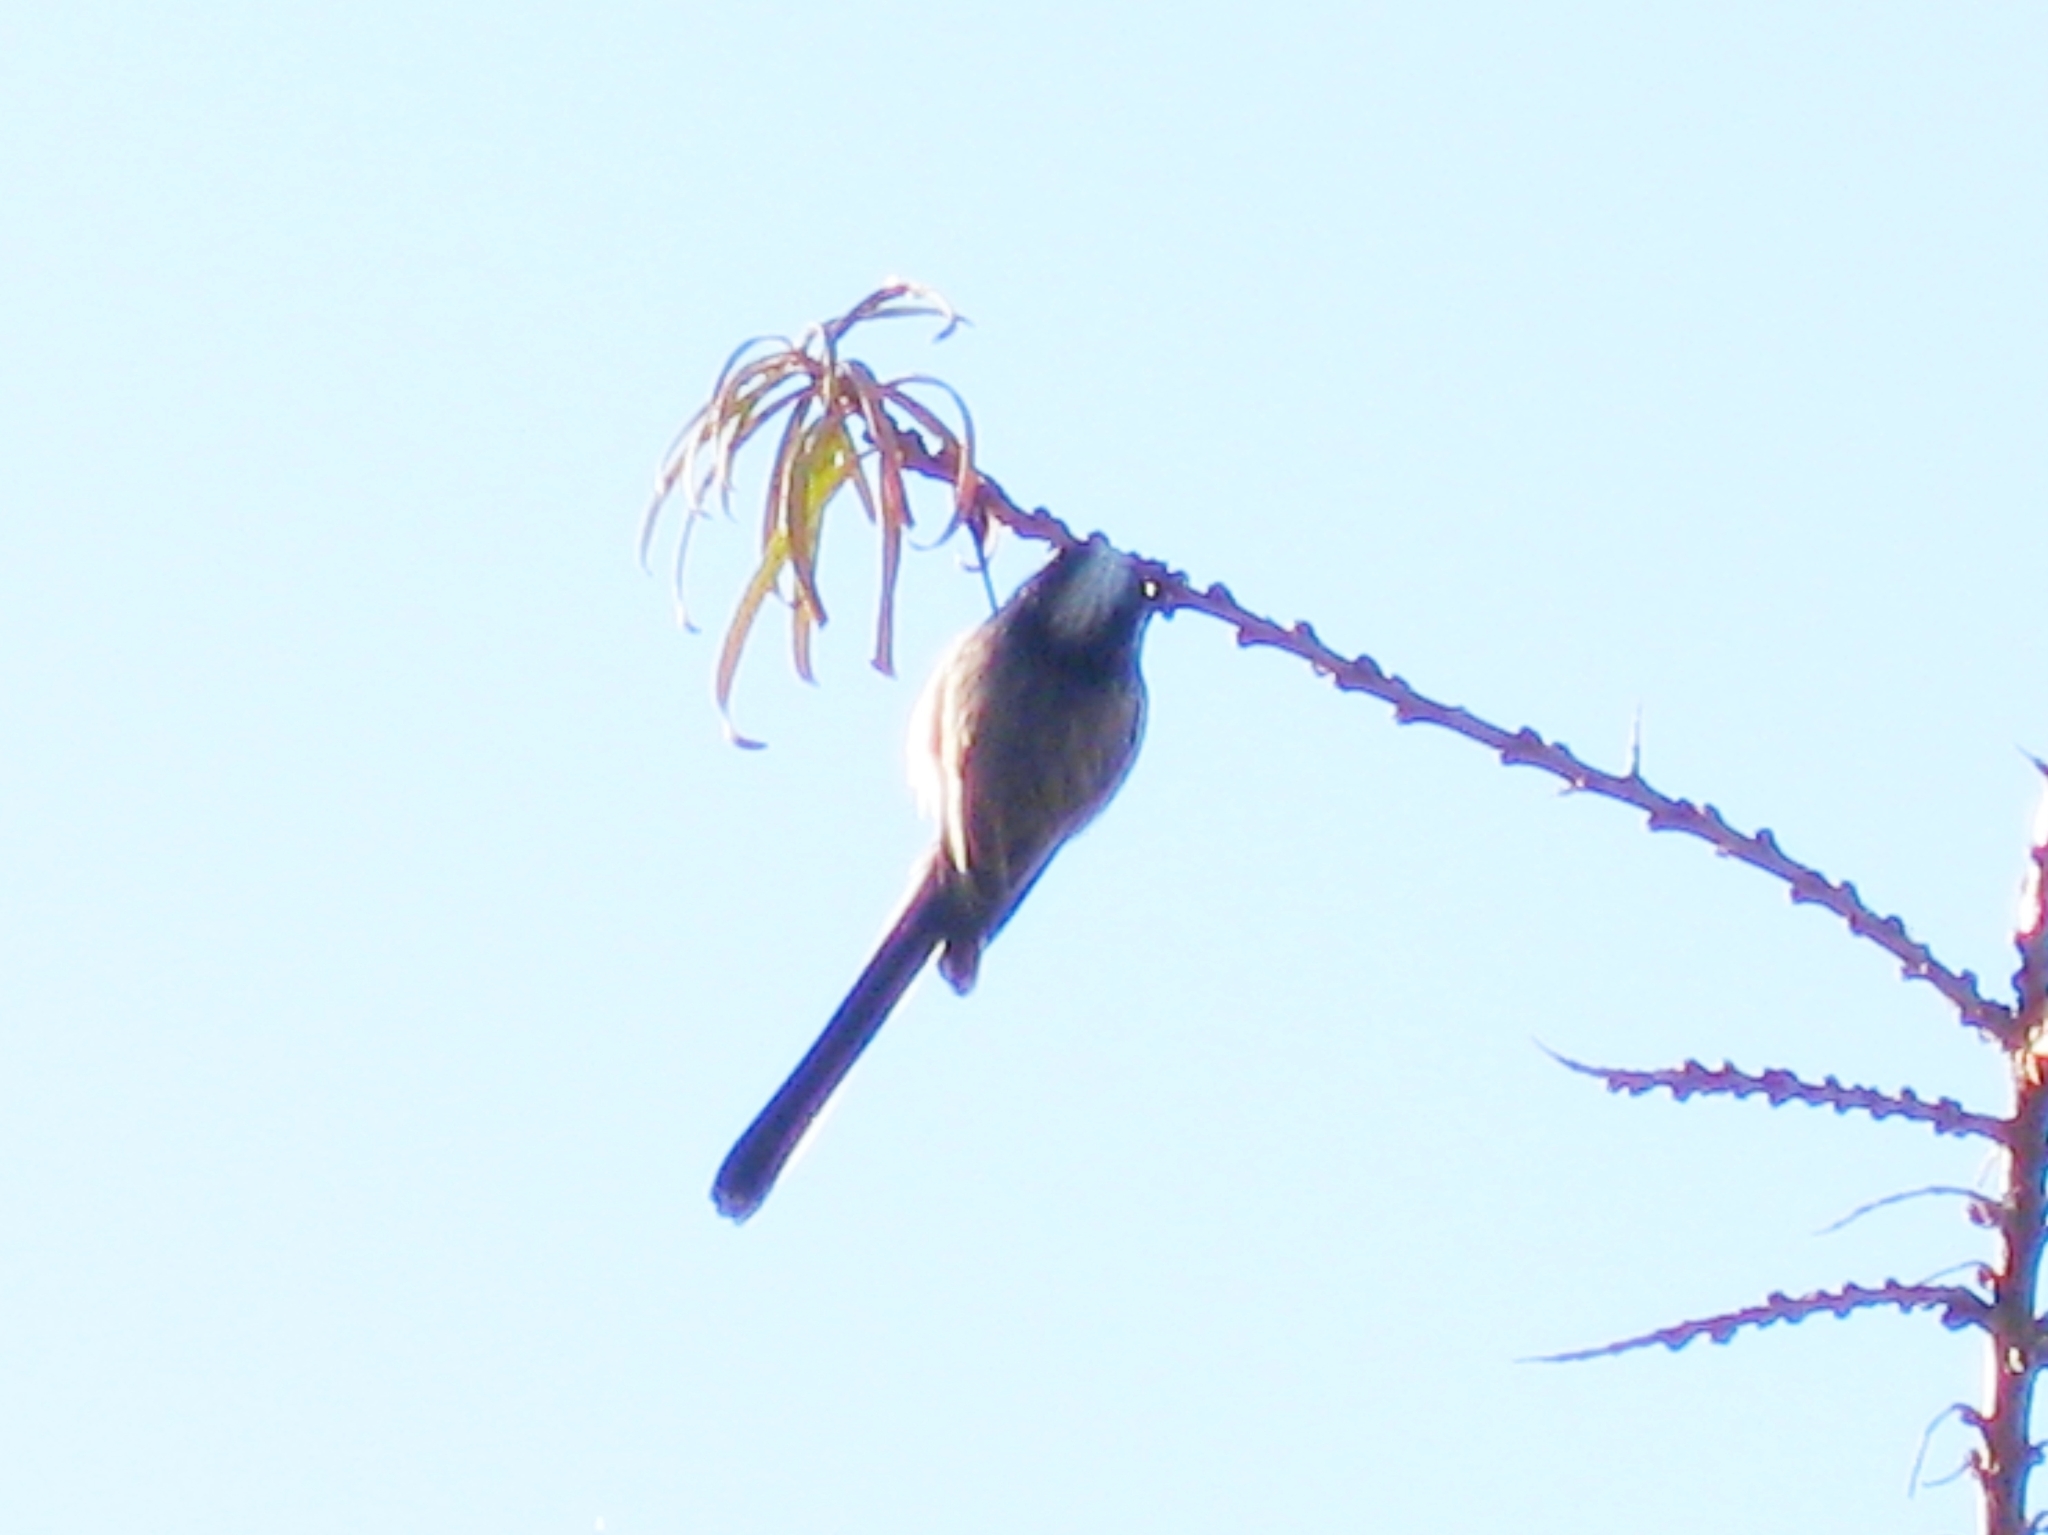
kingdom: Animalia
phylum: Chordata
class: Aves
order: Passeriformes
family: Aegithalidae
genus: Aegithalos
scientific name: Aegithalos caudatus
